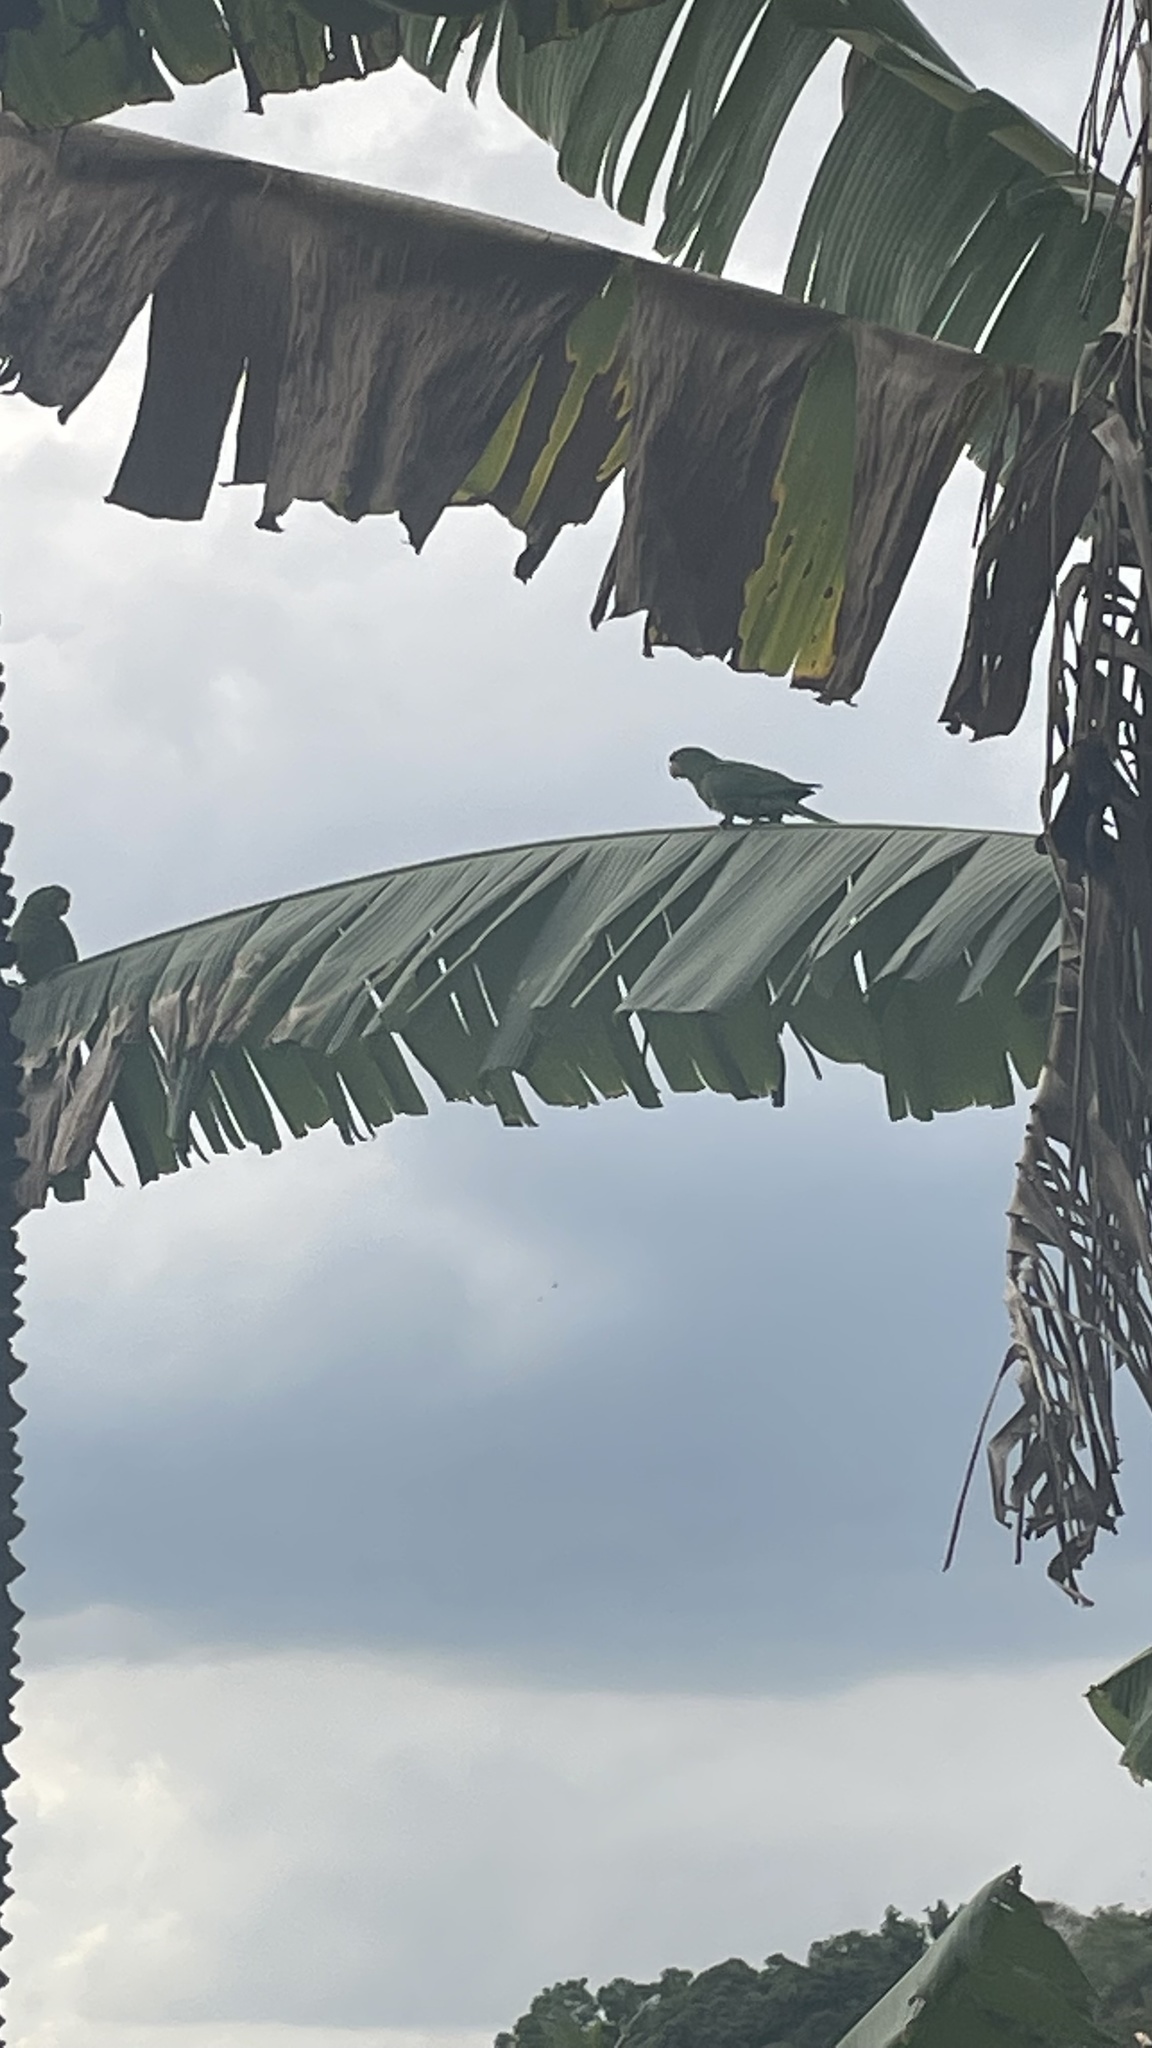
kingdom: Animalia
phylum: Chordata
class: Aves
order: Psittaciformes
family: Psittacidae
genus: Aratinga
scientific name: Aratinga leucophthalma
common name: White-eyed parakeet
